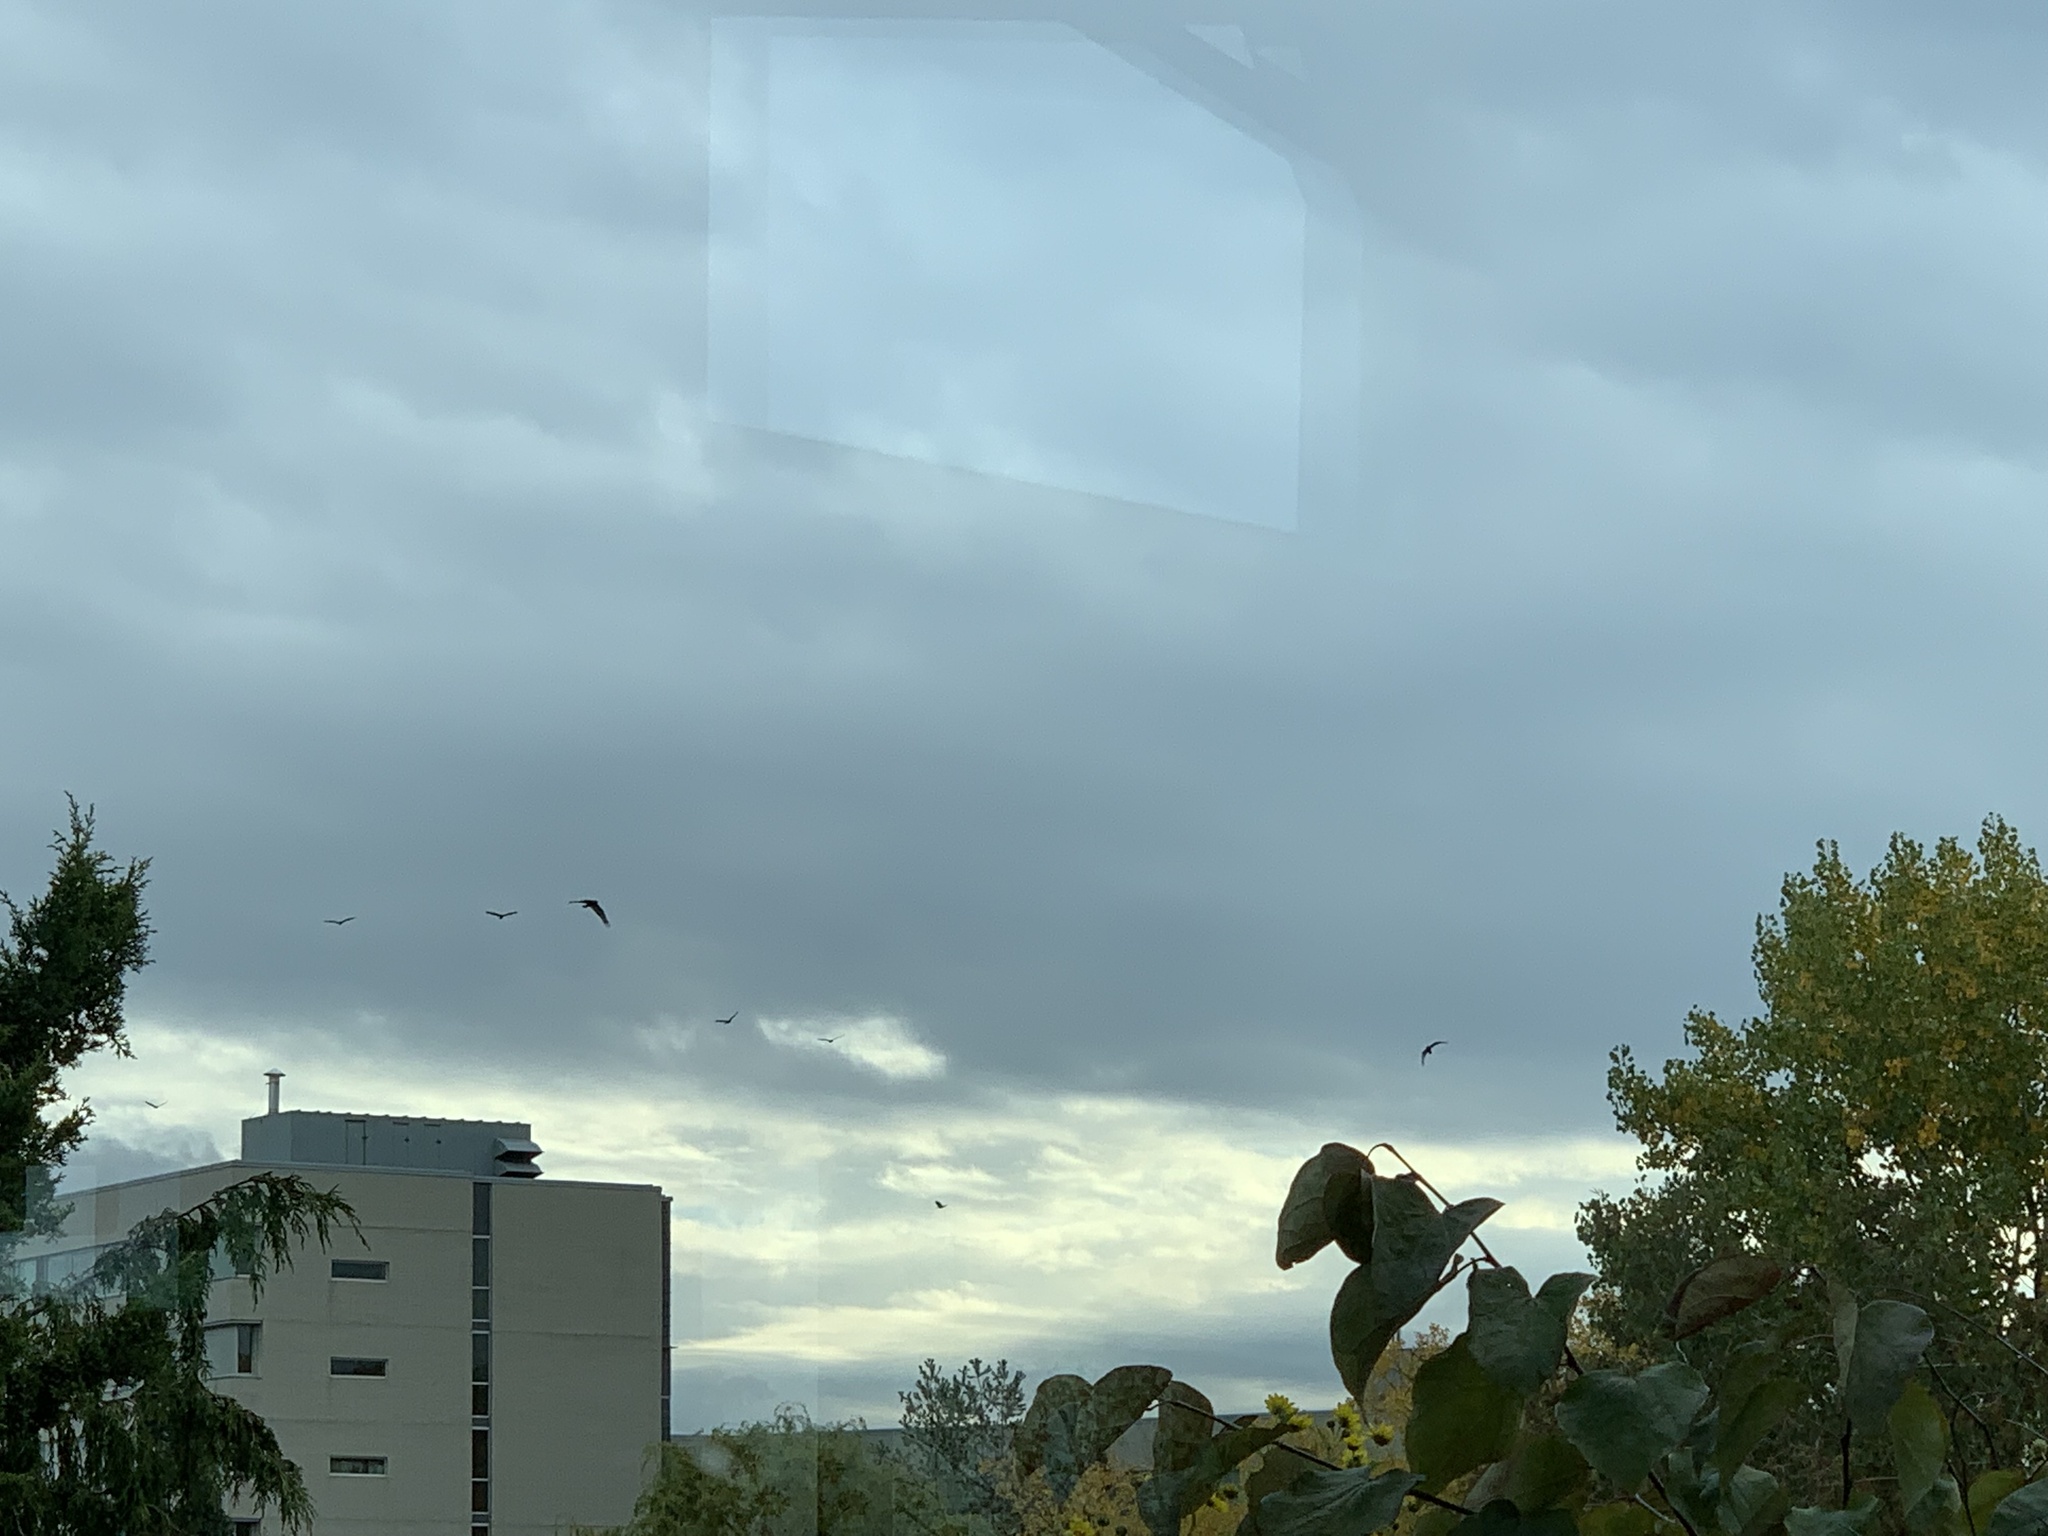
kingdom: Animalia
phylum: Chordata
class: Aves
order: Accipitriformes
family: Cathartidae
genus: Cathartes
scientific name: Cathartes aura
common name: Turkey vulture
